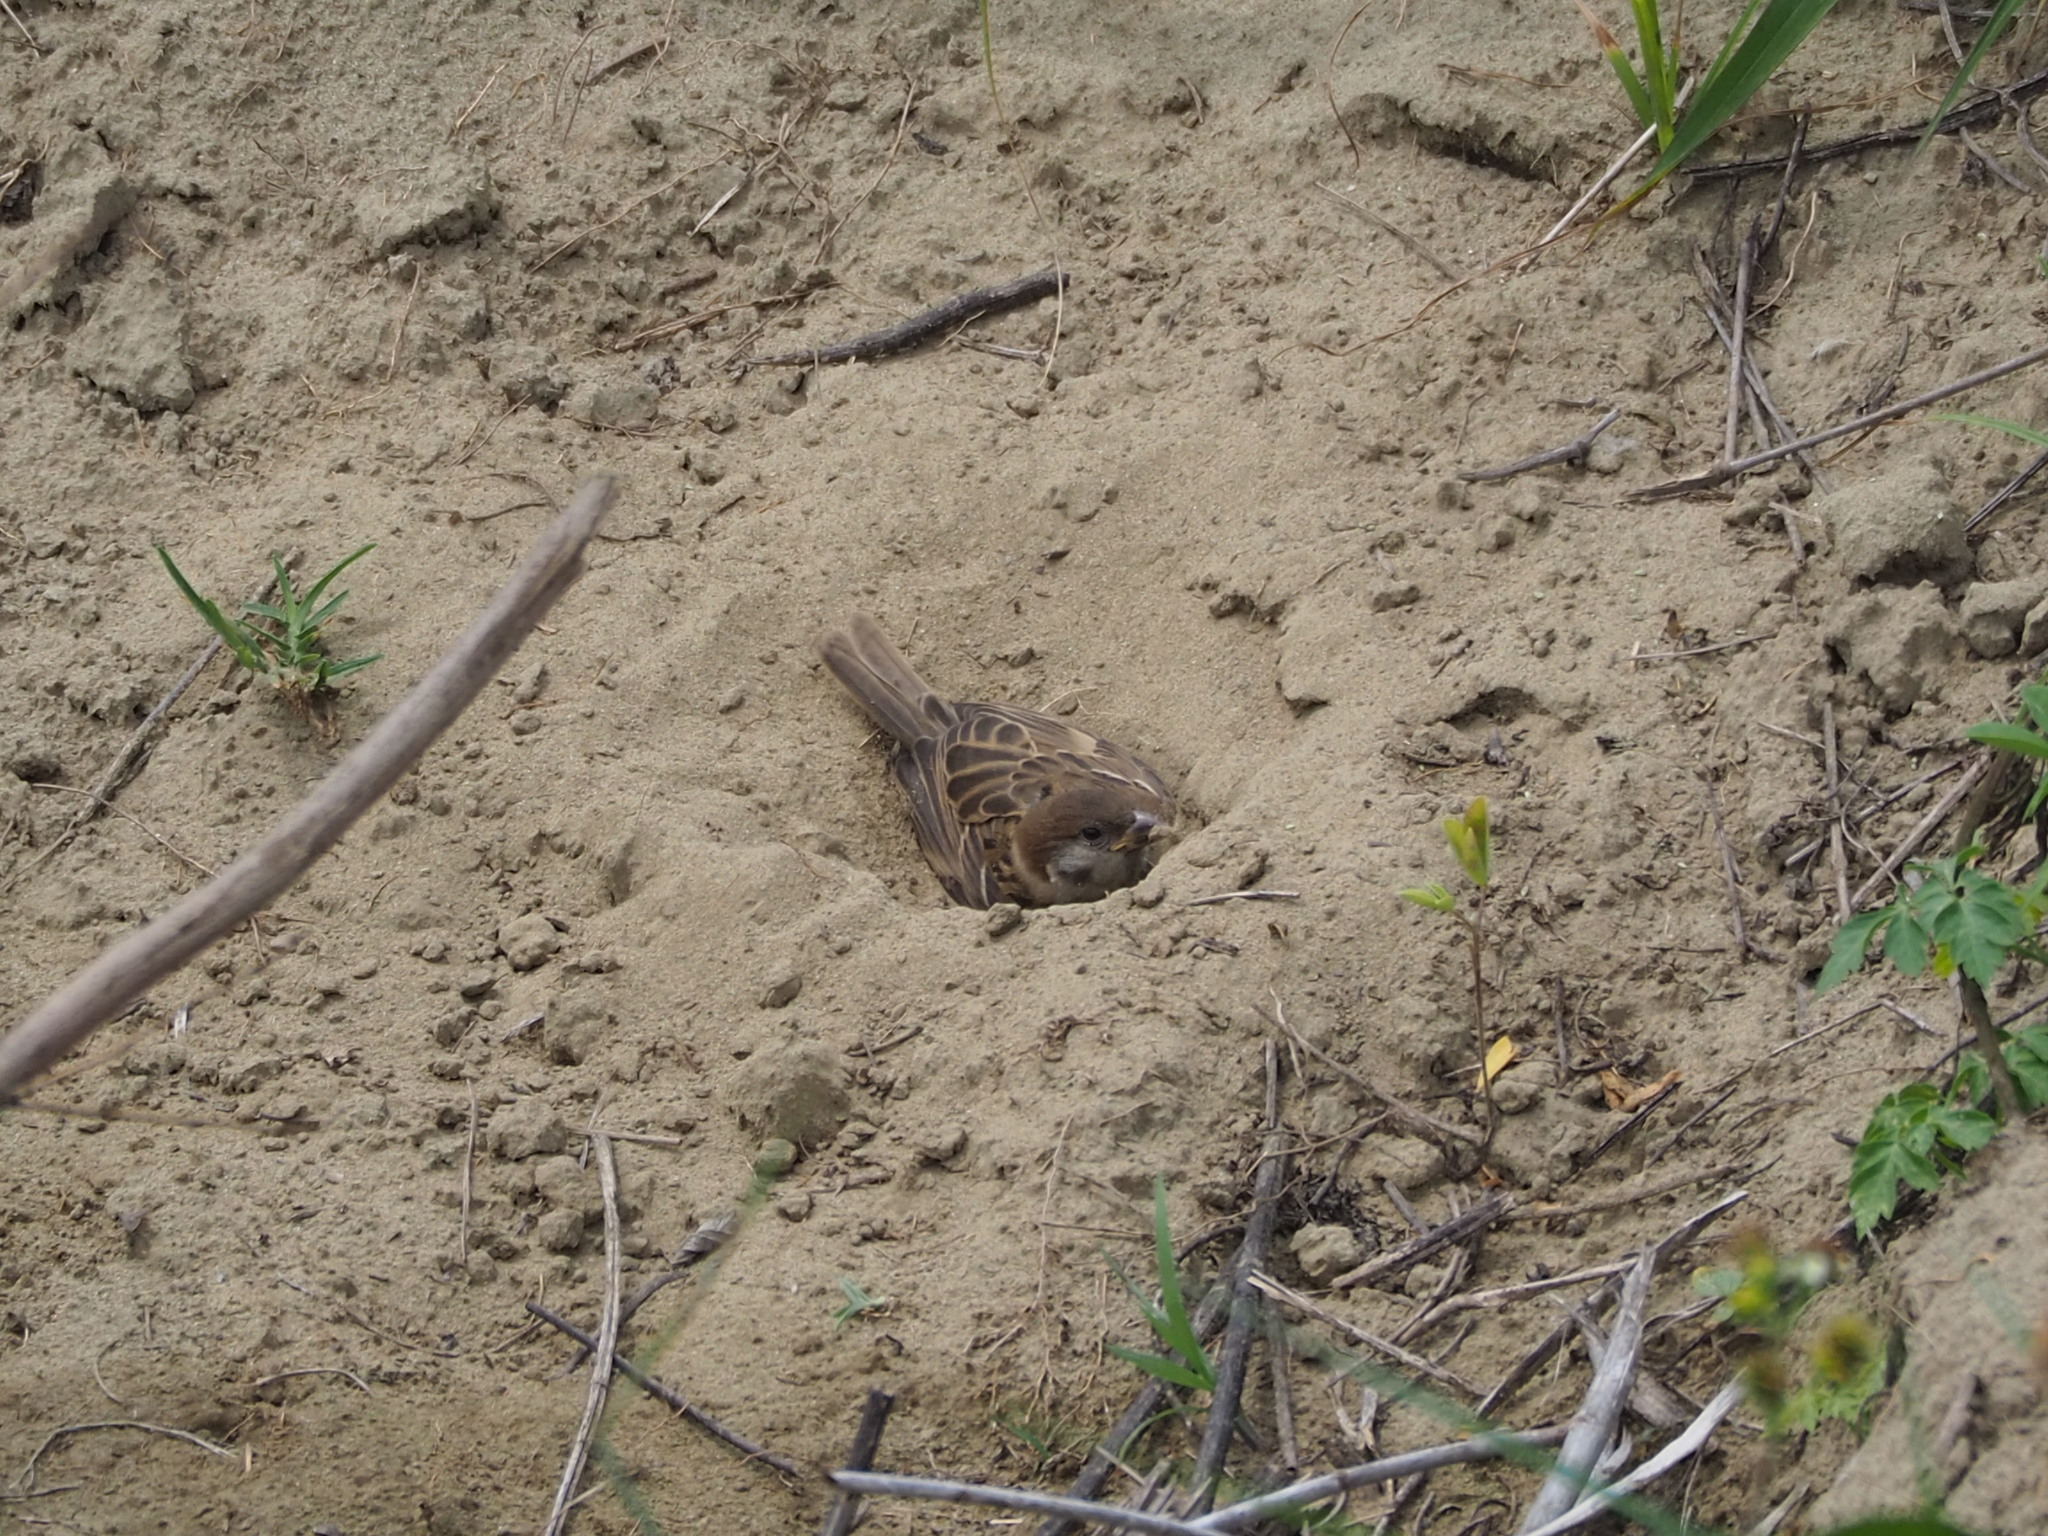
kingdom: Animalia
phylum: Chordata
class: Aves
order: Passeriformes
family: Passeridae
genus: Passer
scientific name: Passer montanus
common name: Eurasian tree sparrow
